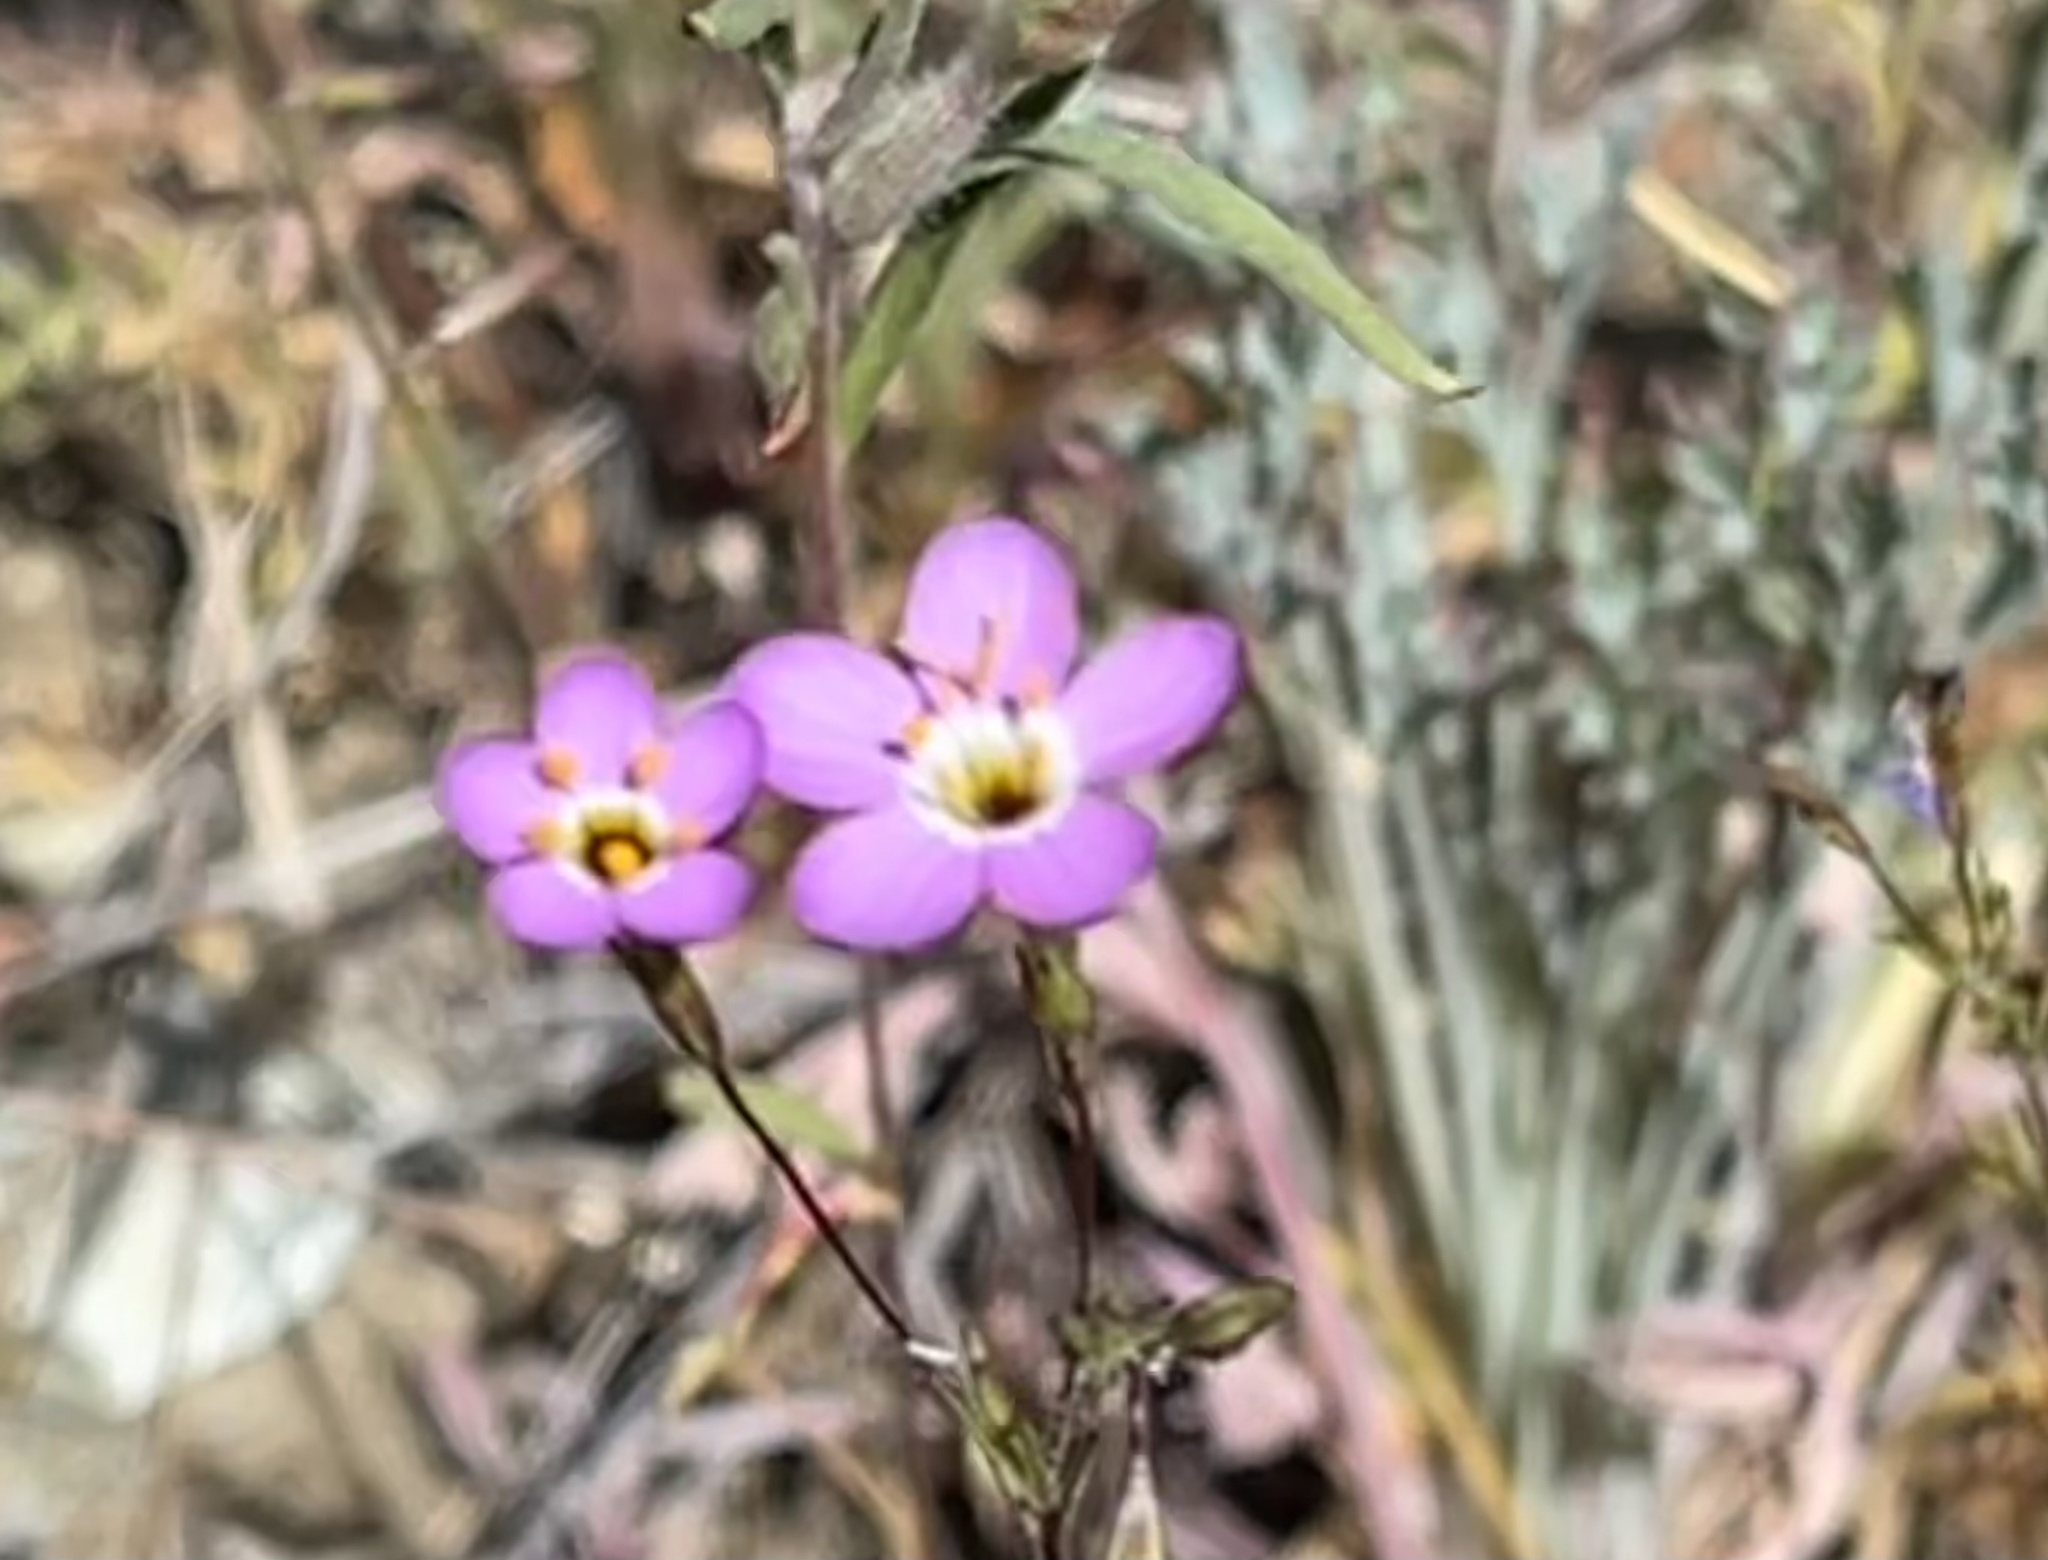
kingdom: Plantae
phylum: Tracheophyta
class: Magnoliopsida
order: Ericales
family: Polemoniaceae
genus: Leptosiphon
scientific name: Leptosiphon ambiguus
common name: Serpentine linanthus
